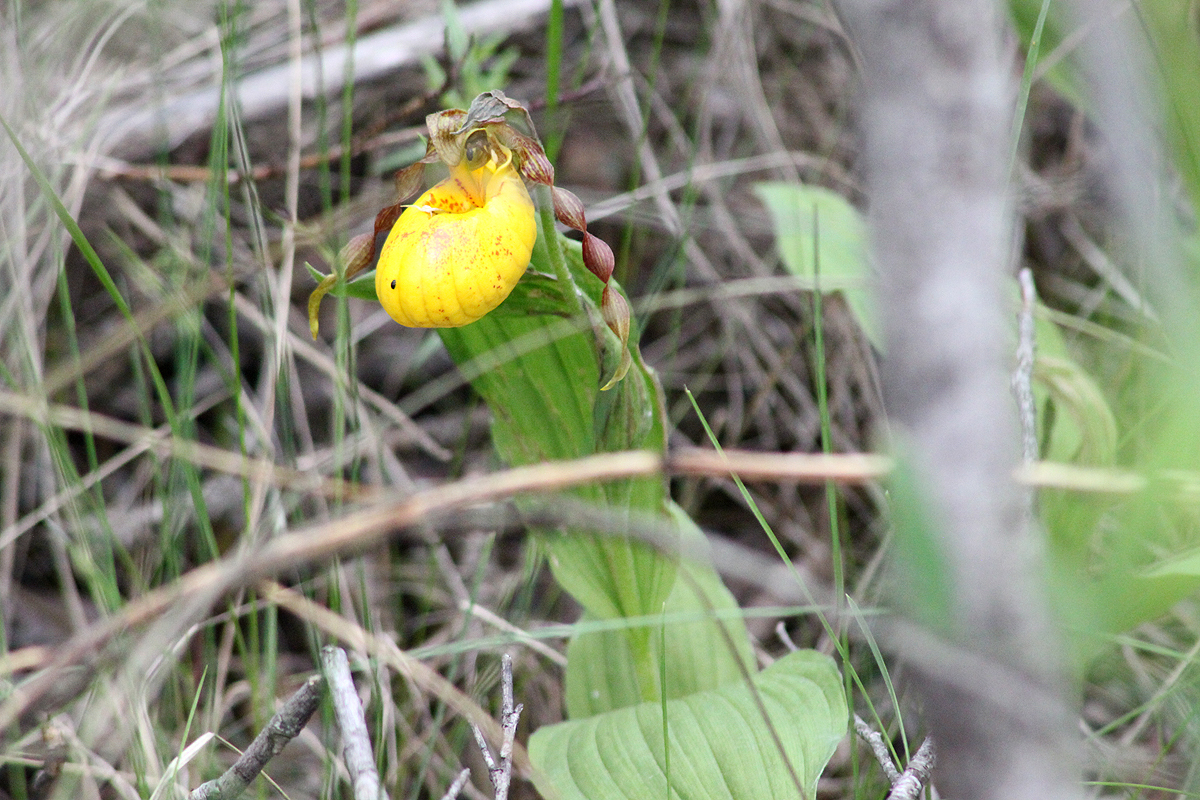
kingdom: Plantae
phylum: Tracheophyta
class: Liliopsida
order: Asparagales
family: Orchidaceae
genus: Cypripedium
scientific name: Cypripedium parviflorum
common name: American yellow lady's-slipper
